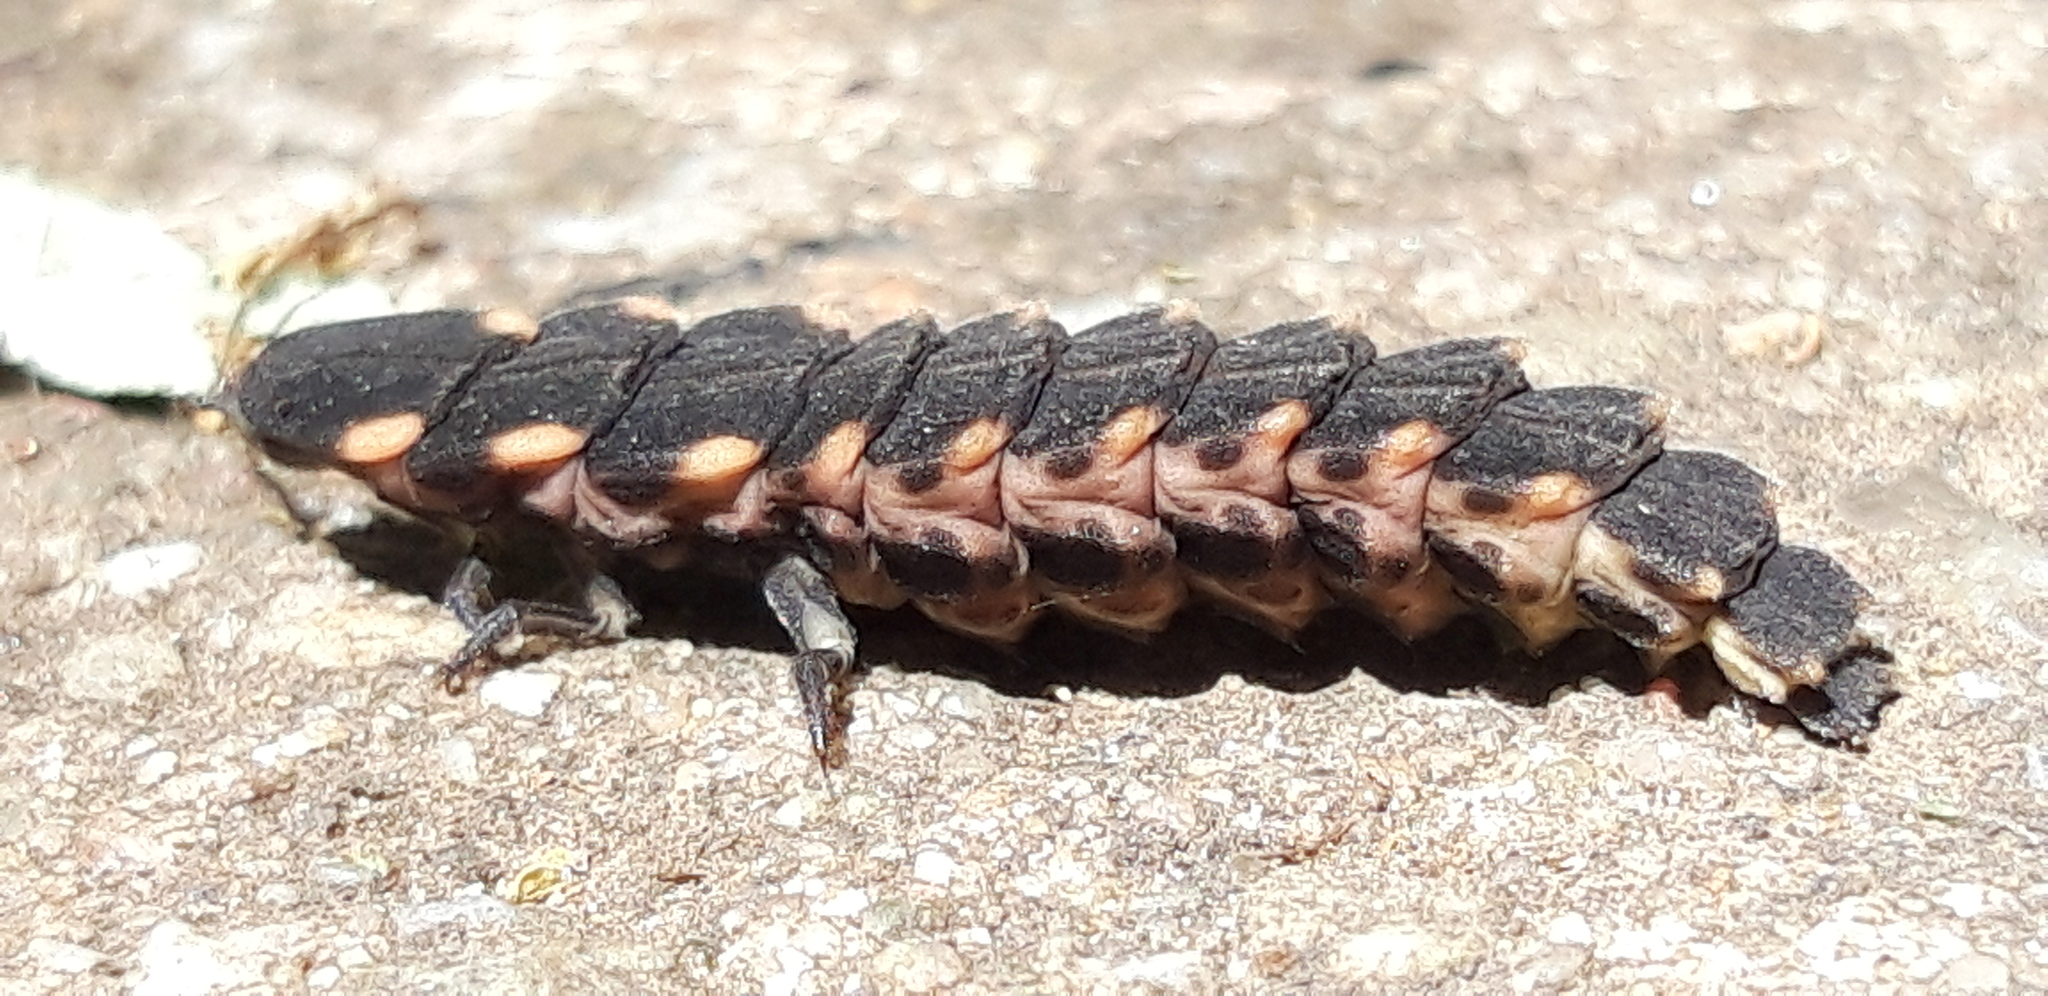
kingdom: Animalia
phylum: Arthropoda
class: Insecta
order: Coleoptera
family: Lampyridae
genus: Lampyris
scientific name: Lampyris noctiluca
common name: Glow-worm
